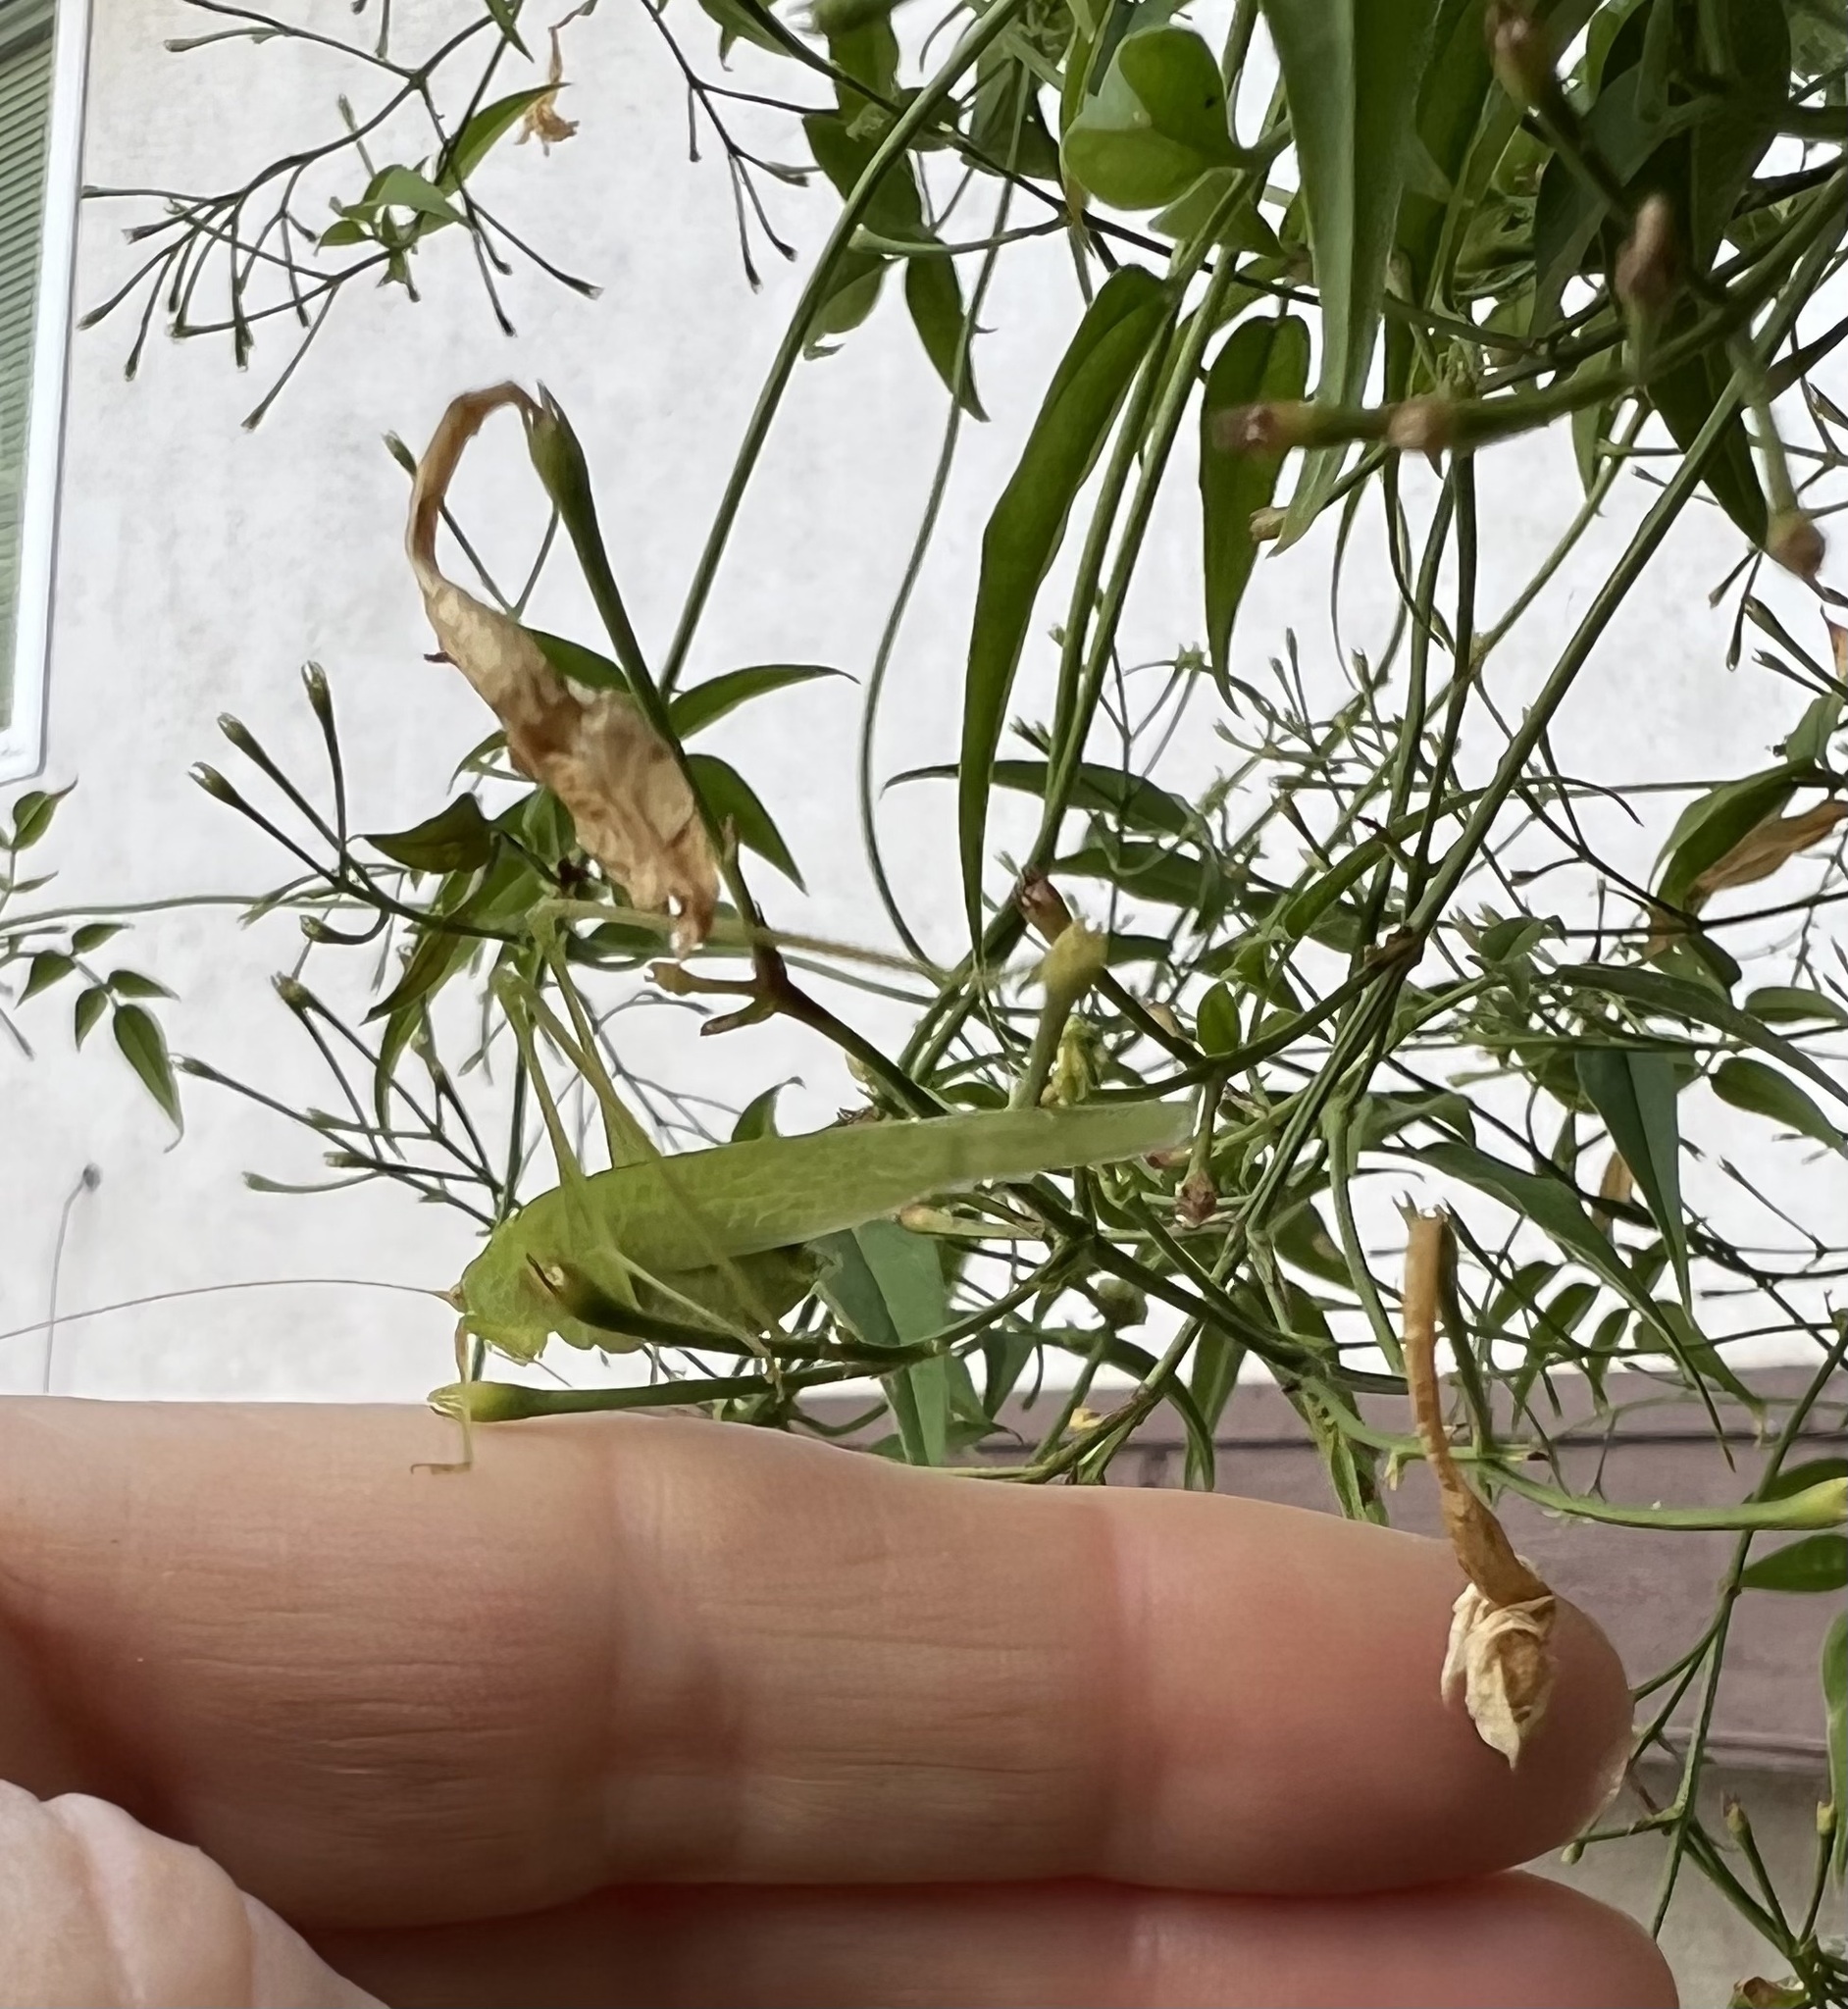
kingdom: Animalia
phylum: Arthropoda
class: Insecta
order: Orthoptera
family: Tettigoniidae
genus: Phaneroptera
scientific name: Phaneroptera nana
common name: Southern sickle bush-cricket
